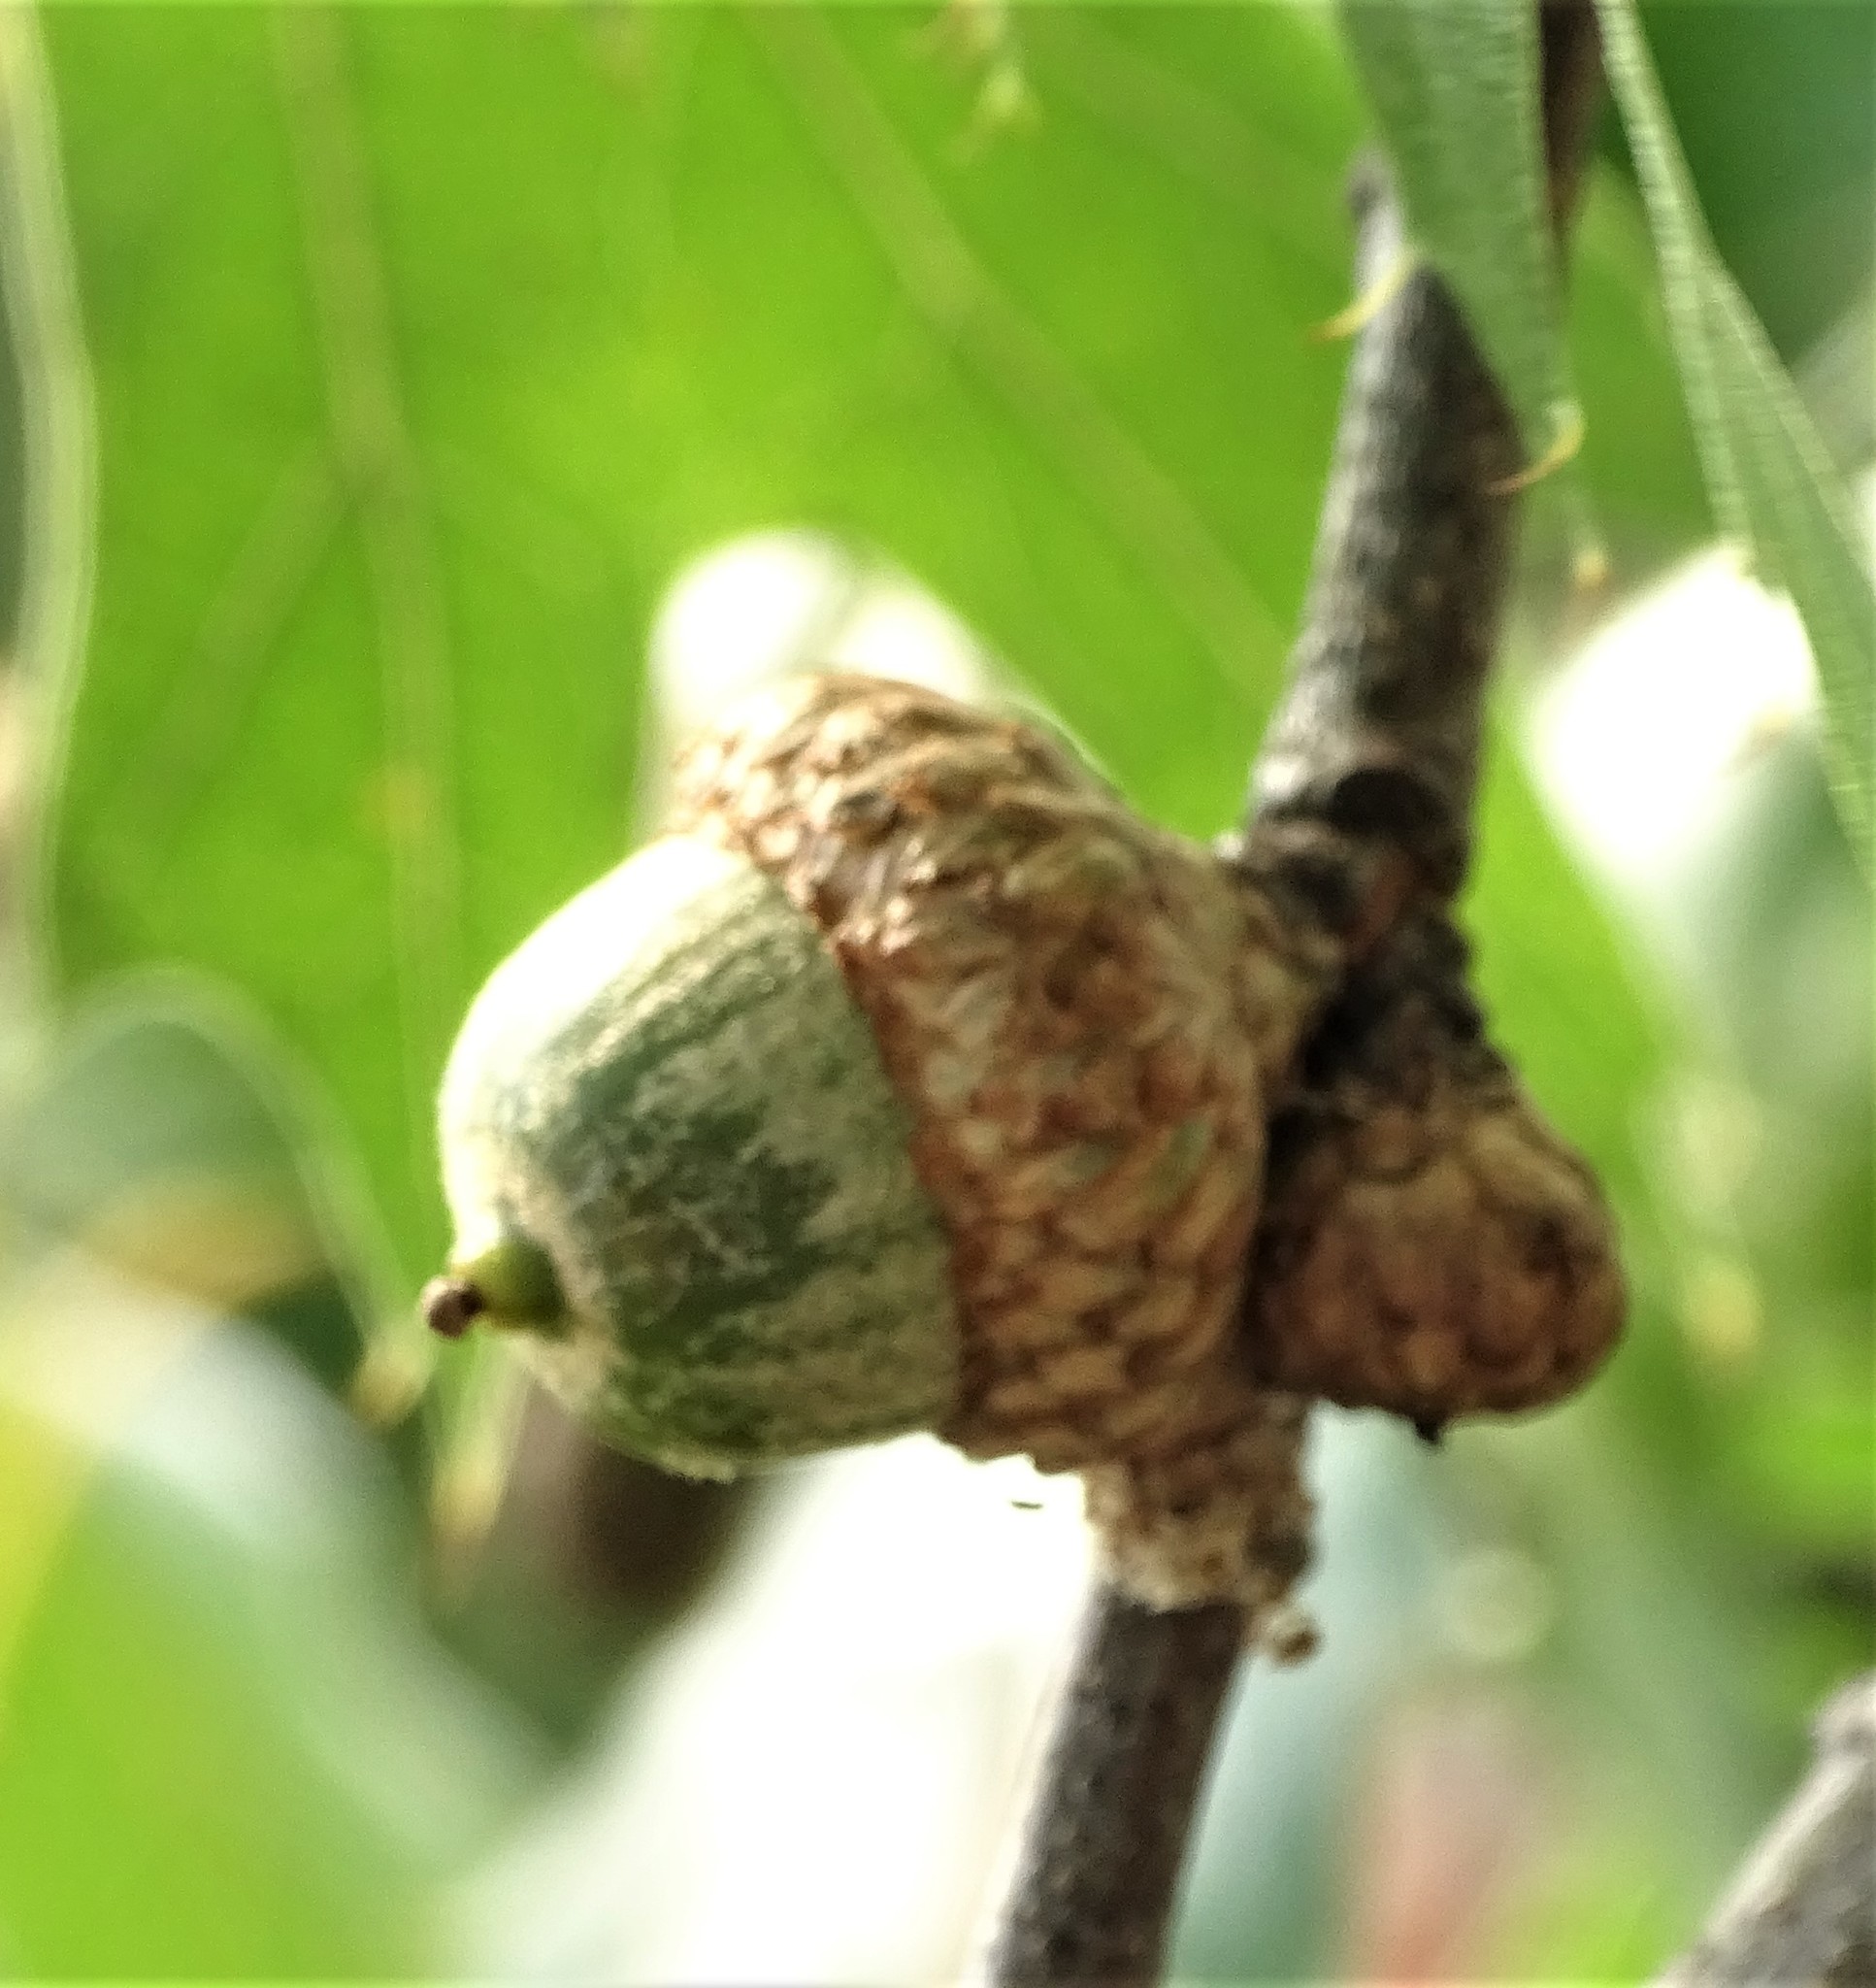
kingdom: Plantae
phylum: Tracheophyta
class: Magnoliopsida
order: Fagales
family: Fagaceae
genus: Quercus
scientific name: Quercus velutina
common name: Black oak
